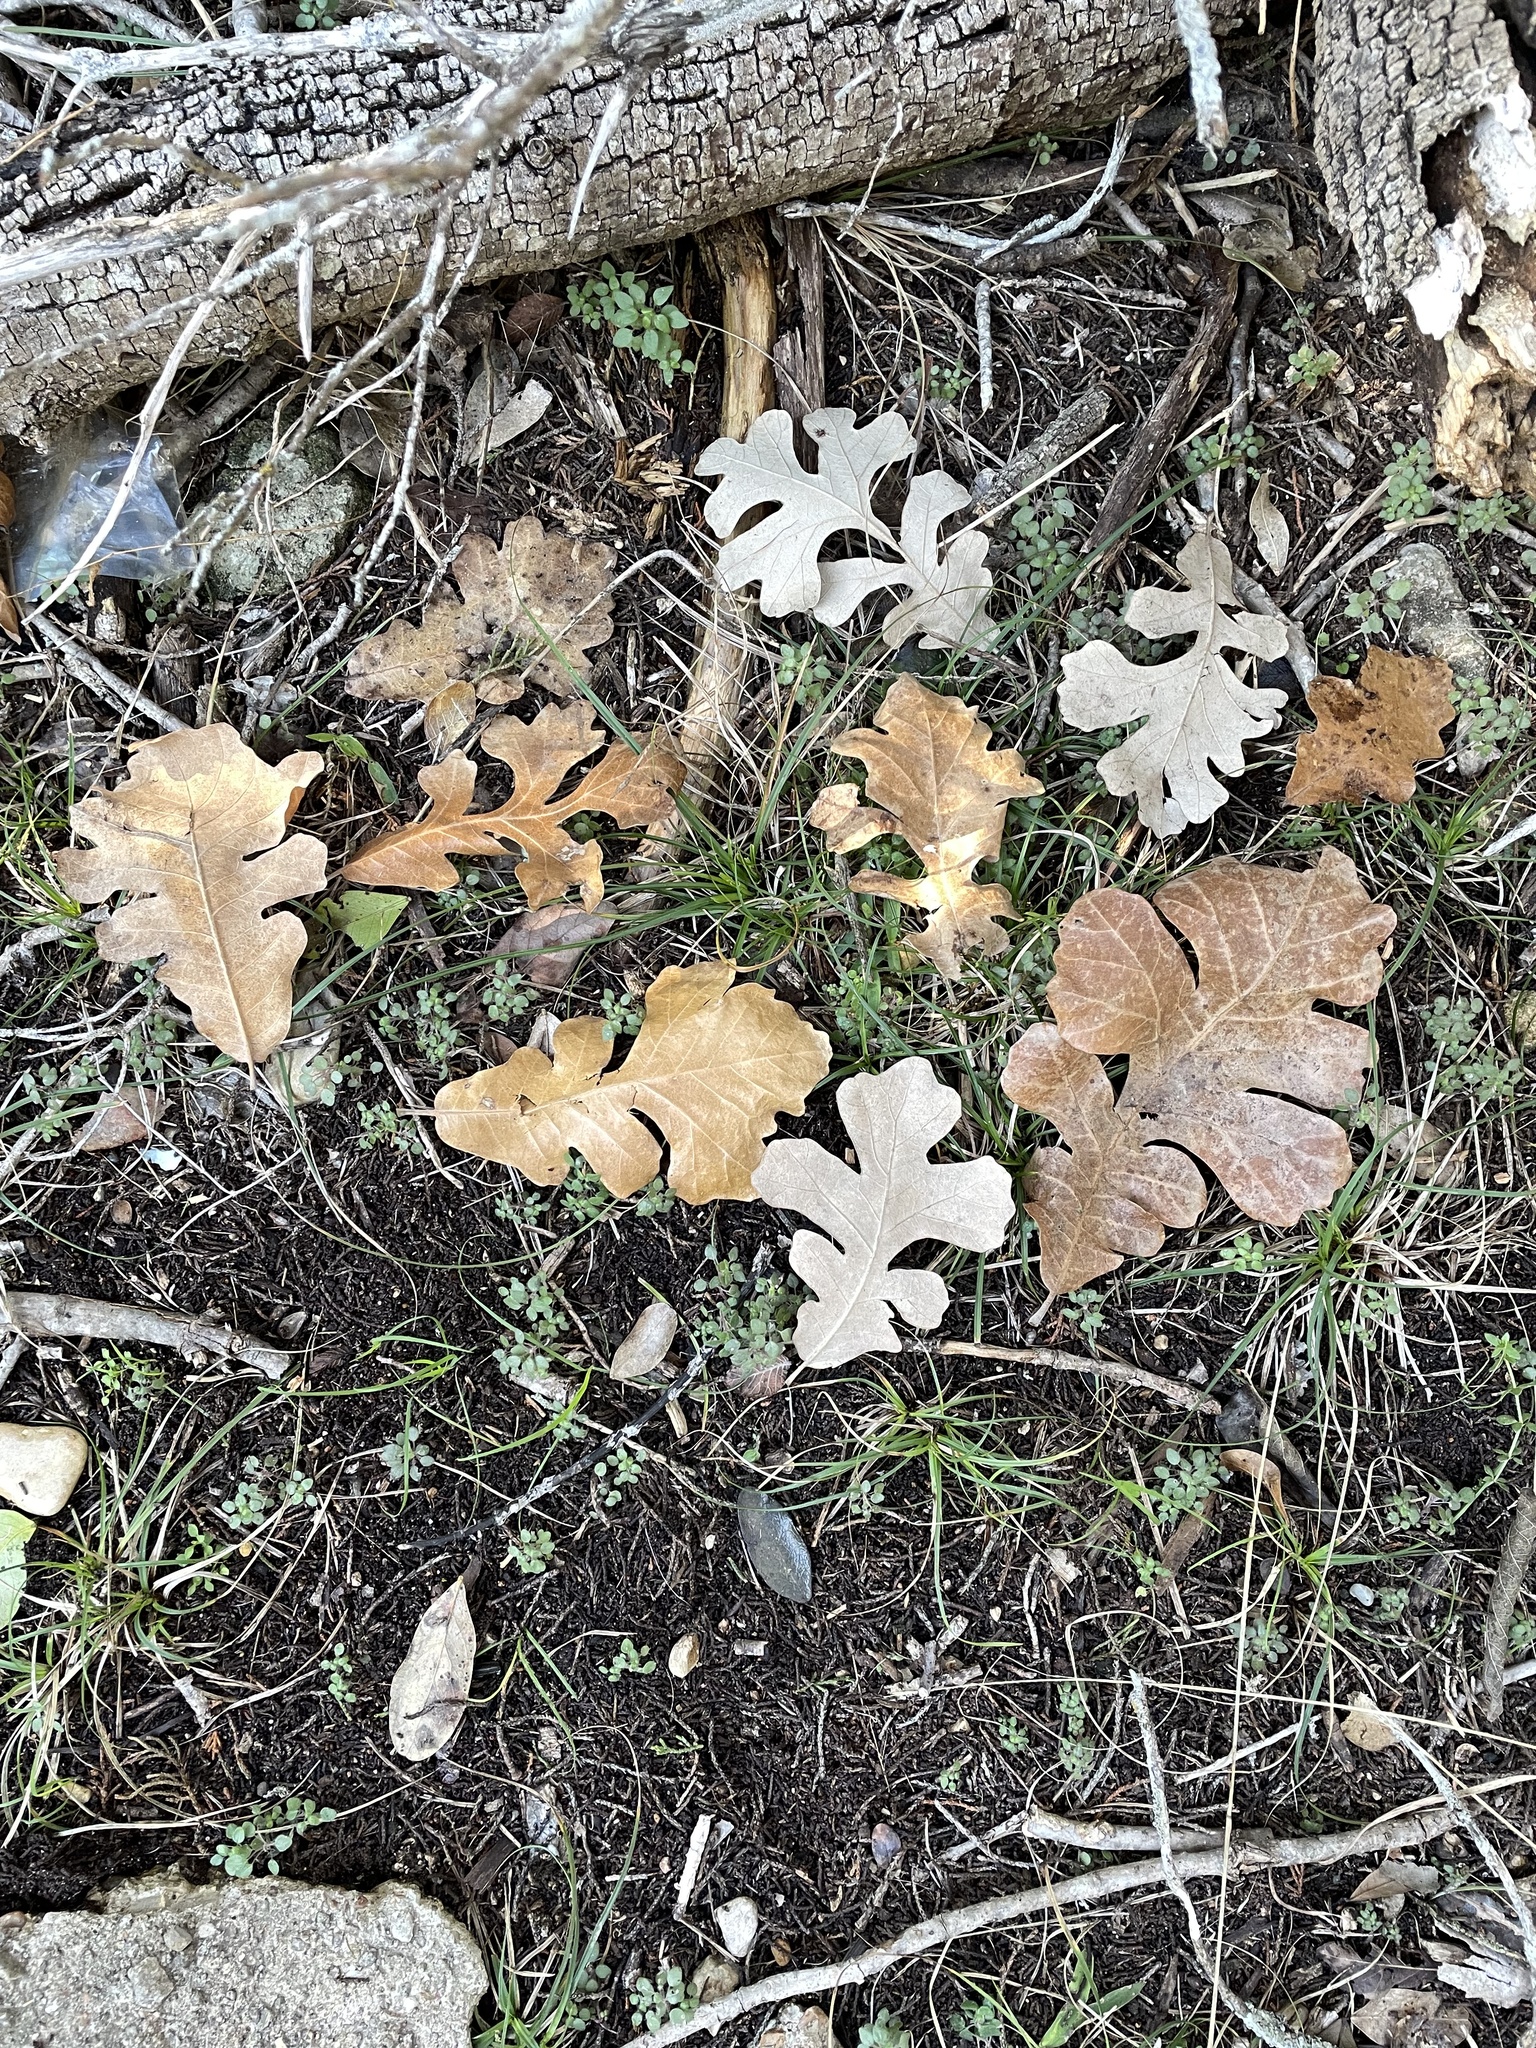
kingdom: Plantae
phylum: Tracheophyta
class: Magnoliopsida
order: Fagales
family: Fagaceae
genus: Quercus
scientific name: Quercus macrocarpa
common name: Bur oak
